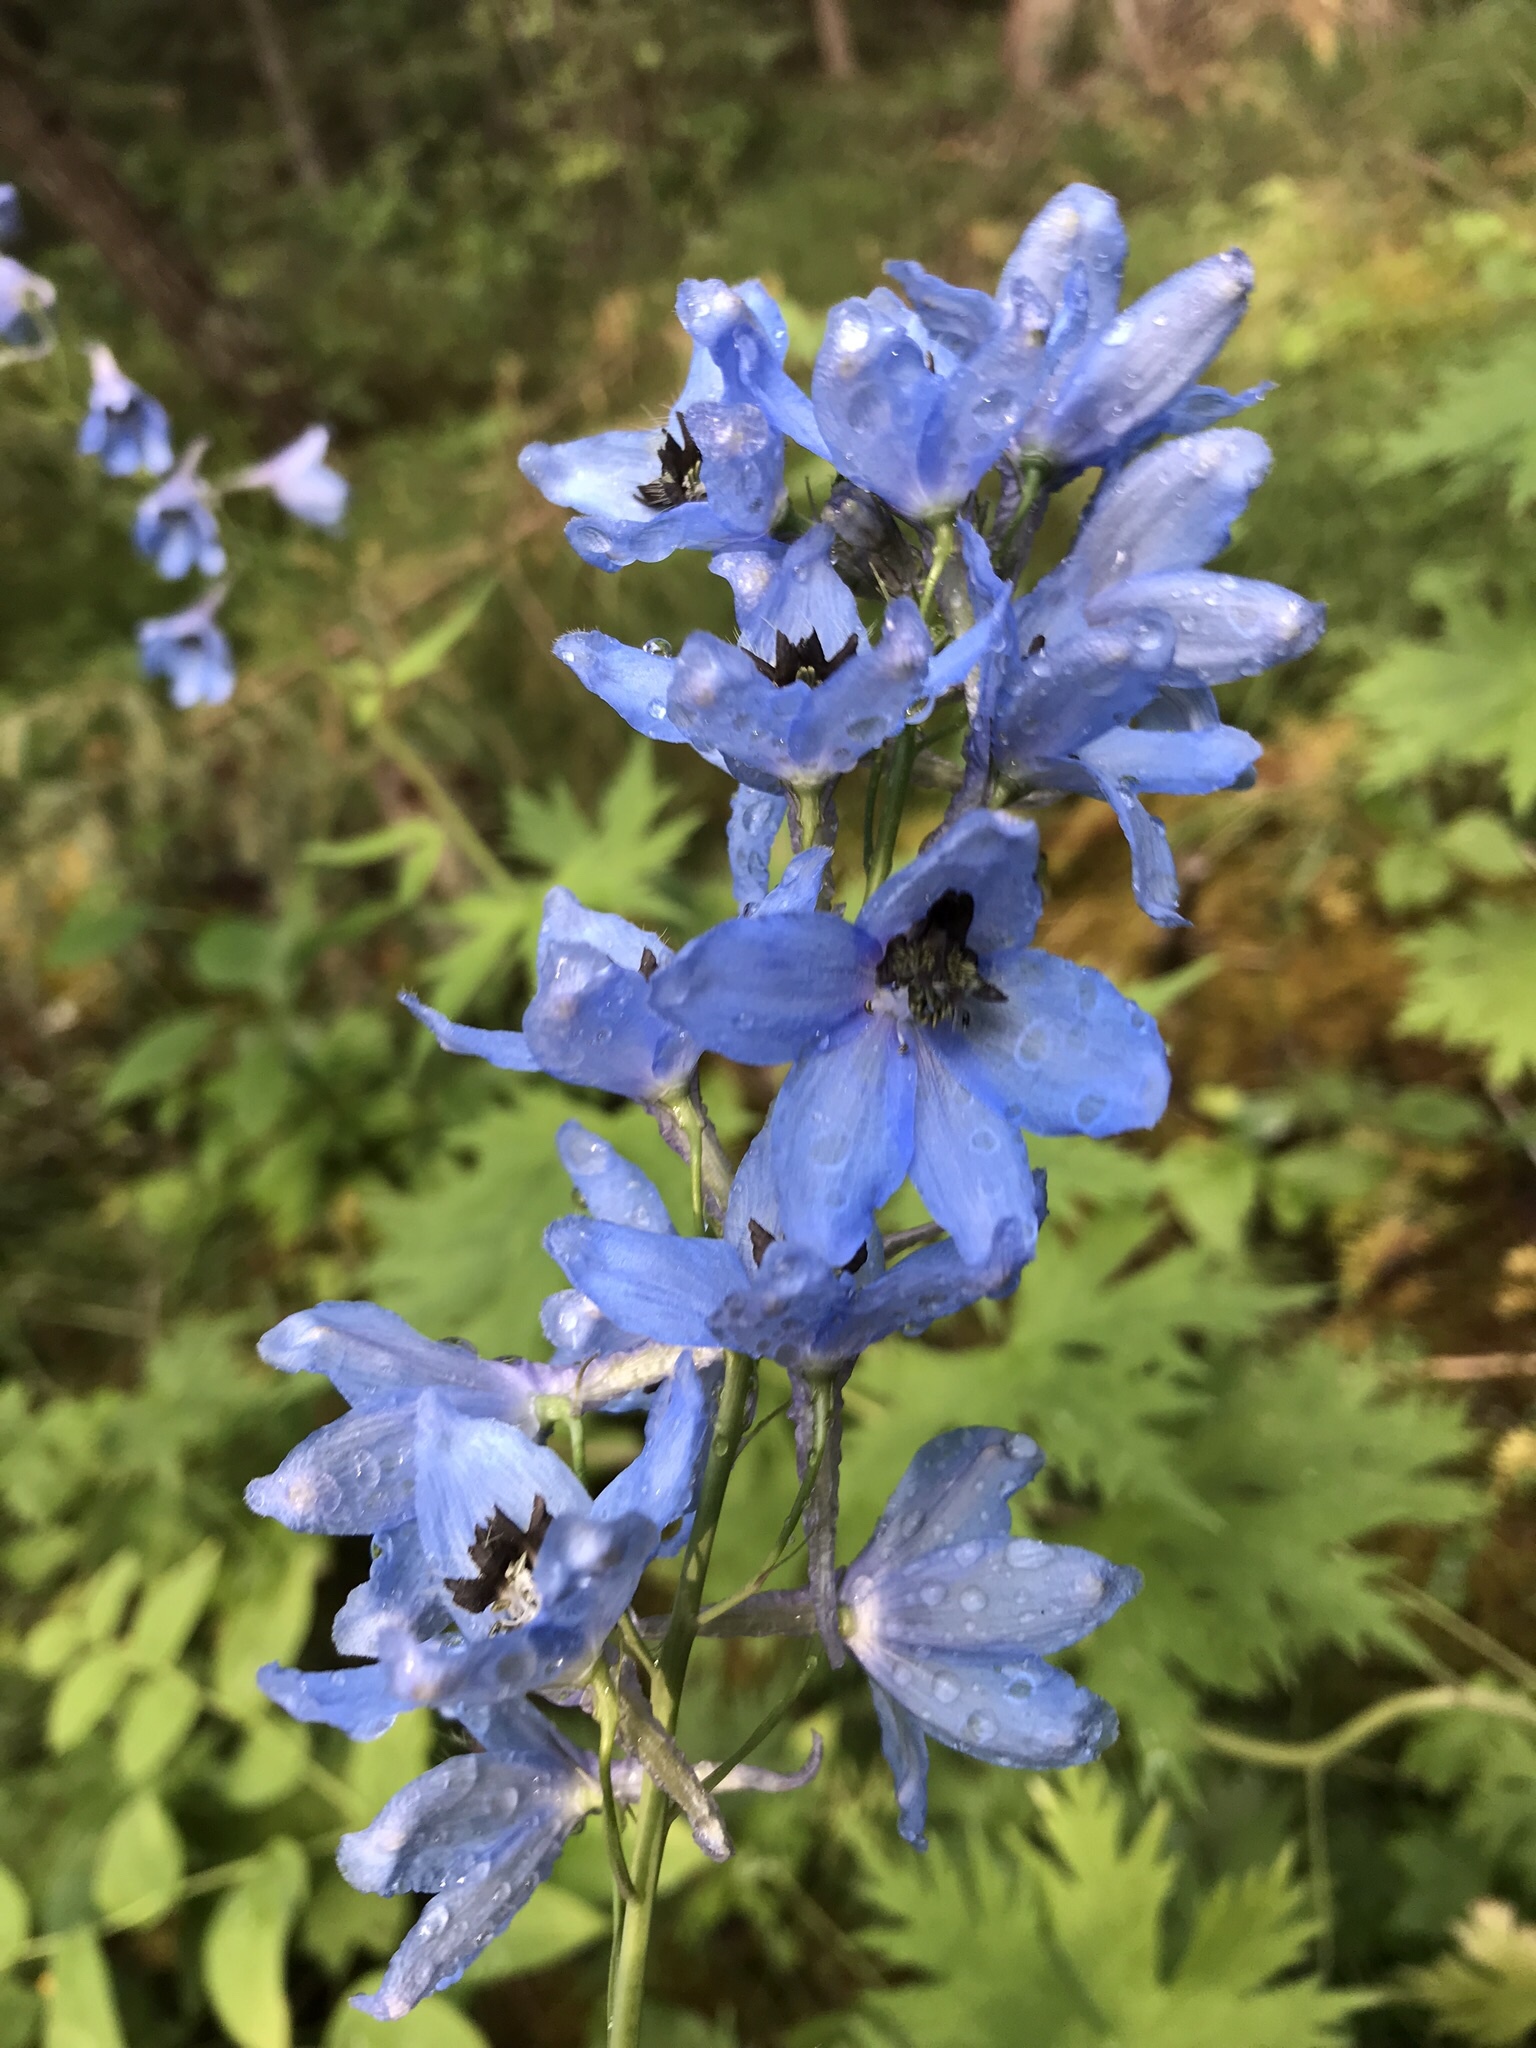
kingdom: Plantae
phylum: Tracheophyta
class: Magnoliopsida
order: Ranunculales
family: Ranunculaceae
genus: Delphinium
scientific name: Delphinium cultorum
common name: Garden delphinium
